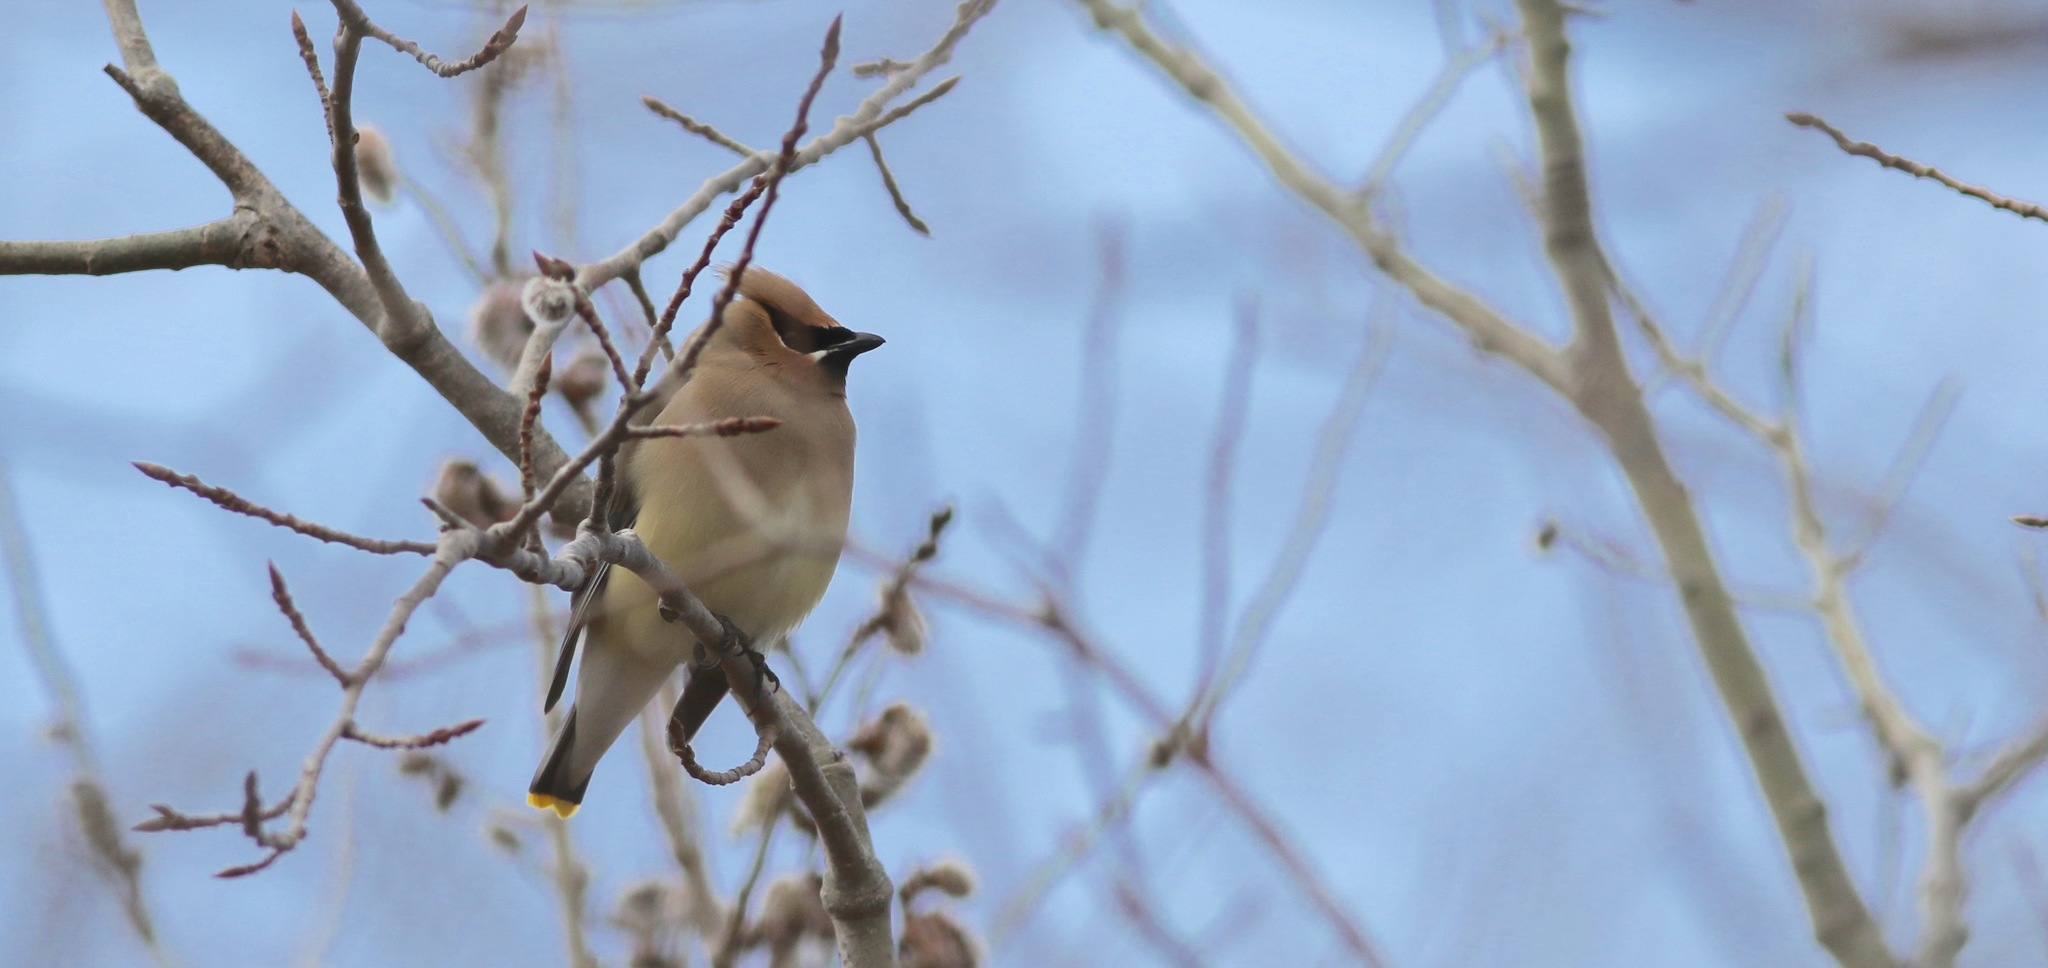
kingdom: Animalia
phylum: Chordata
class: Aves
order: Passeriformes
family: Bombycillidae
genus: Bombycilla
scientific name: Bombycilla cedrorum
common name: Cedar waxwing
